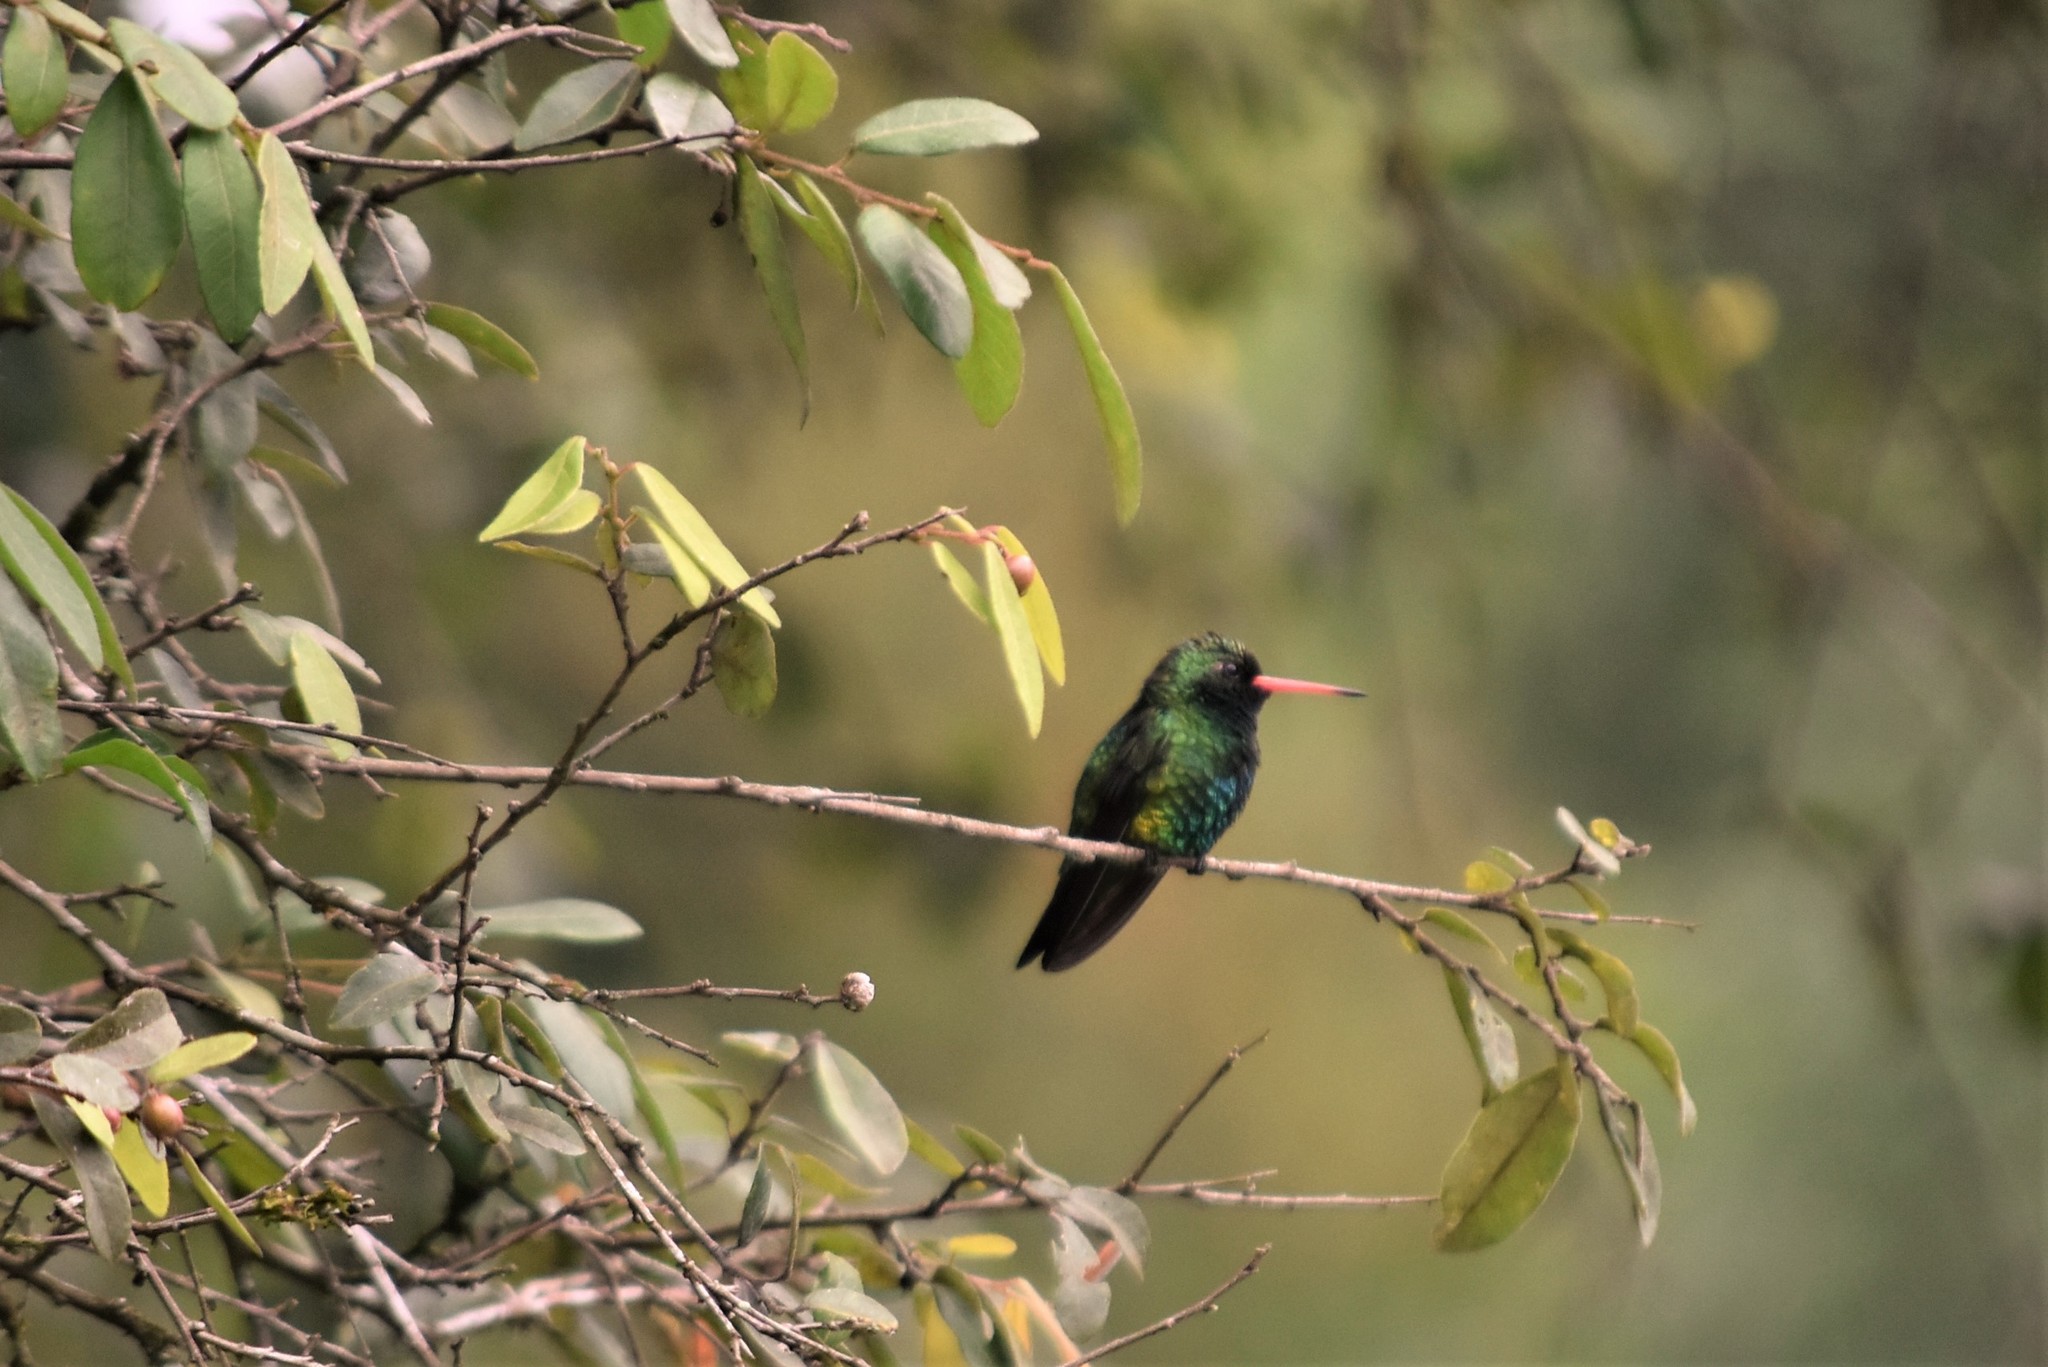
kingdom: Animalia
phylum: Chordata
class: Aves
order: Apodiformes
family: Trochilidae
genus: Chlorostilbon
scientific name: Chlorostilbon lucidus
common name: Glittering-bellied emerald
